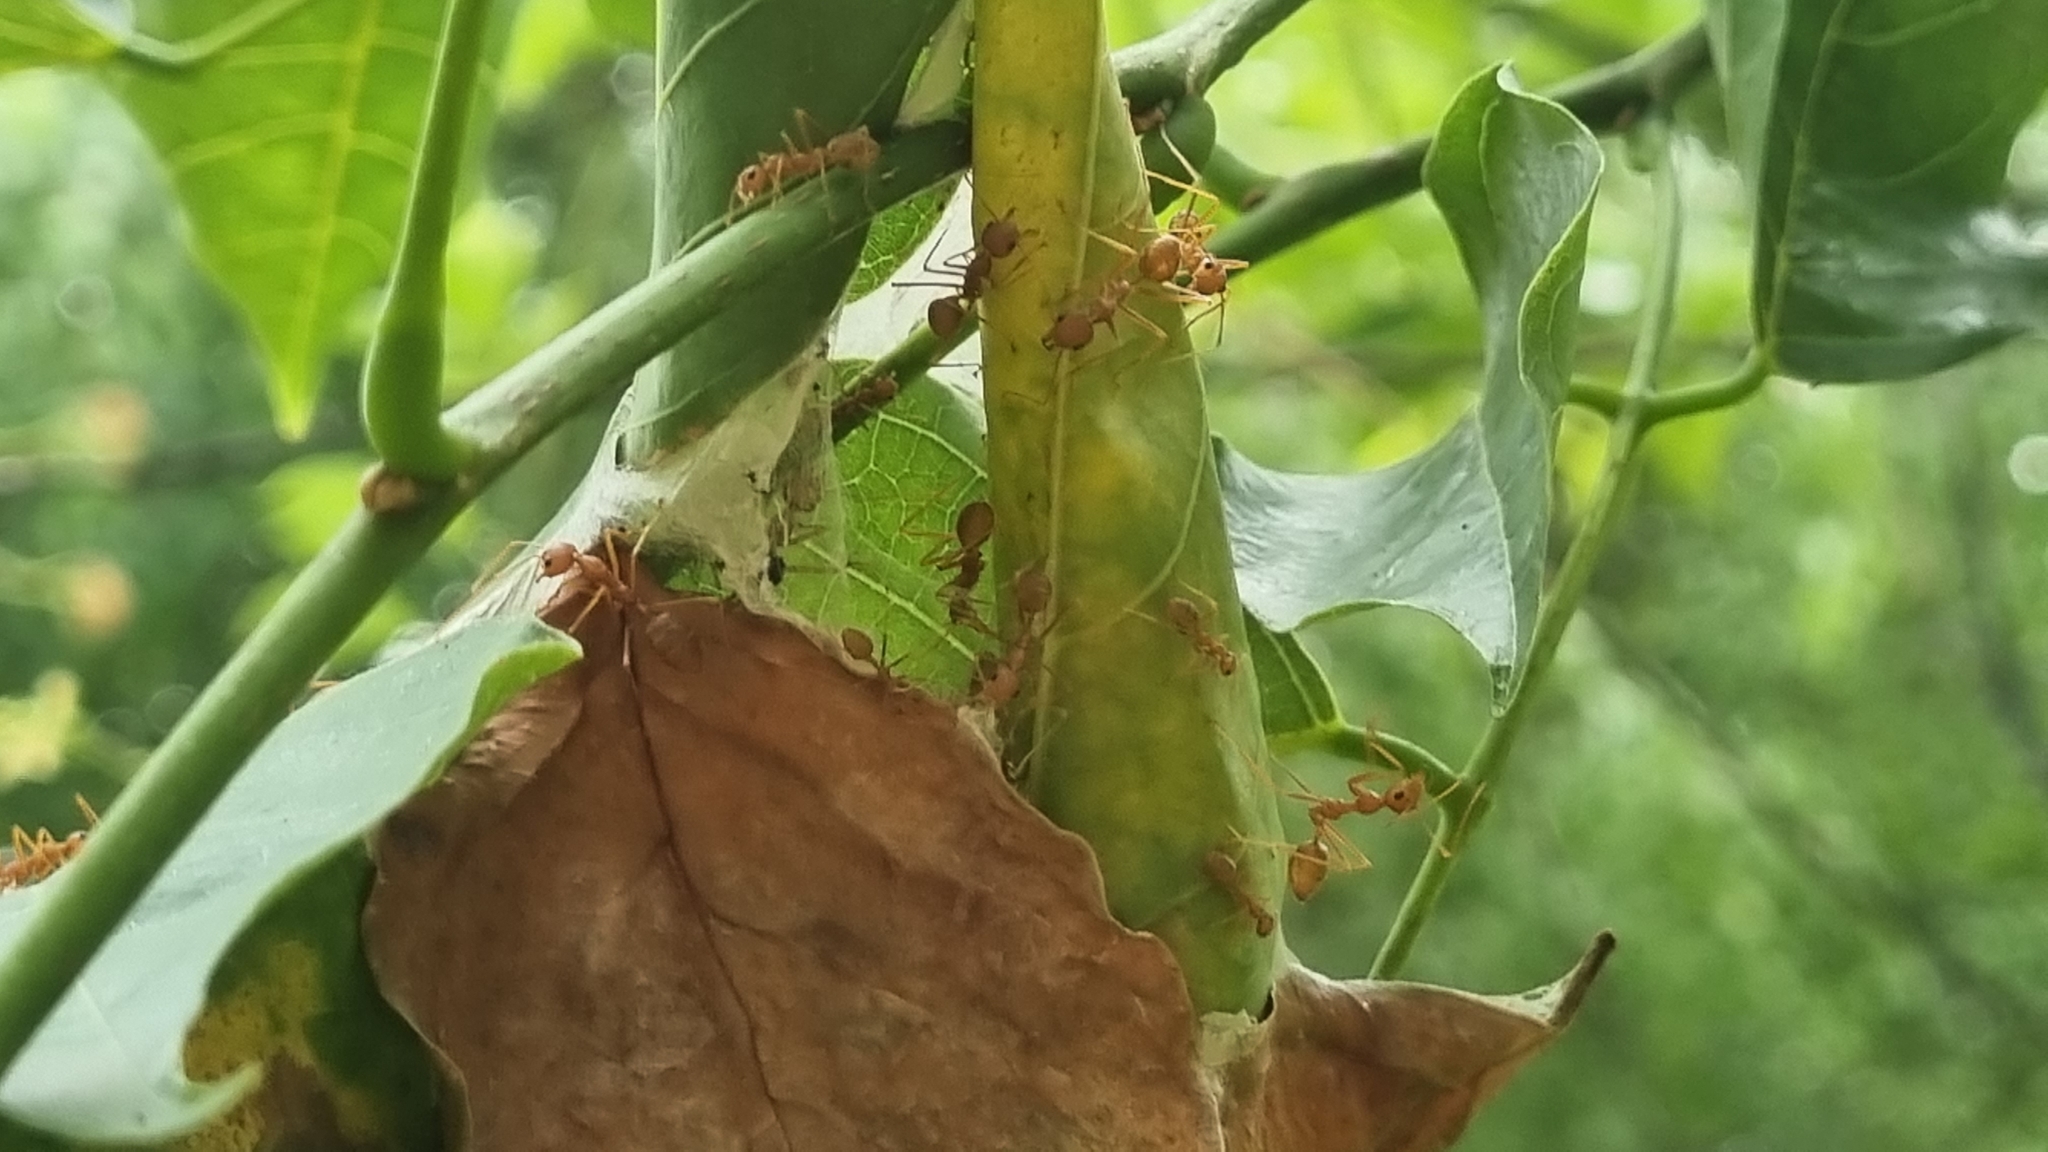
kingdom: Animalia
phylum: Arthropoda
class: Insecta
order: Hymenoptera
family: Formicidae
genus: Oecophylla
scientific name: Oecophylla smaragdina
